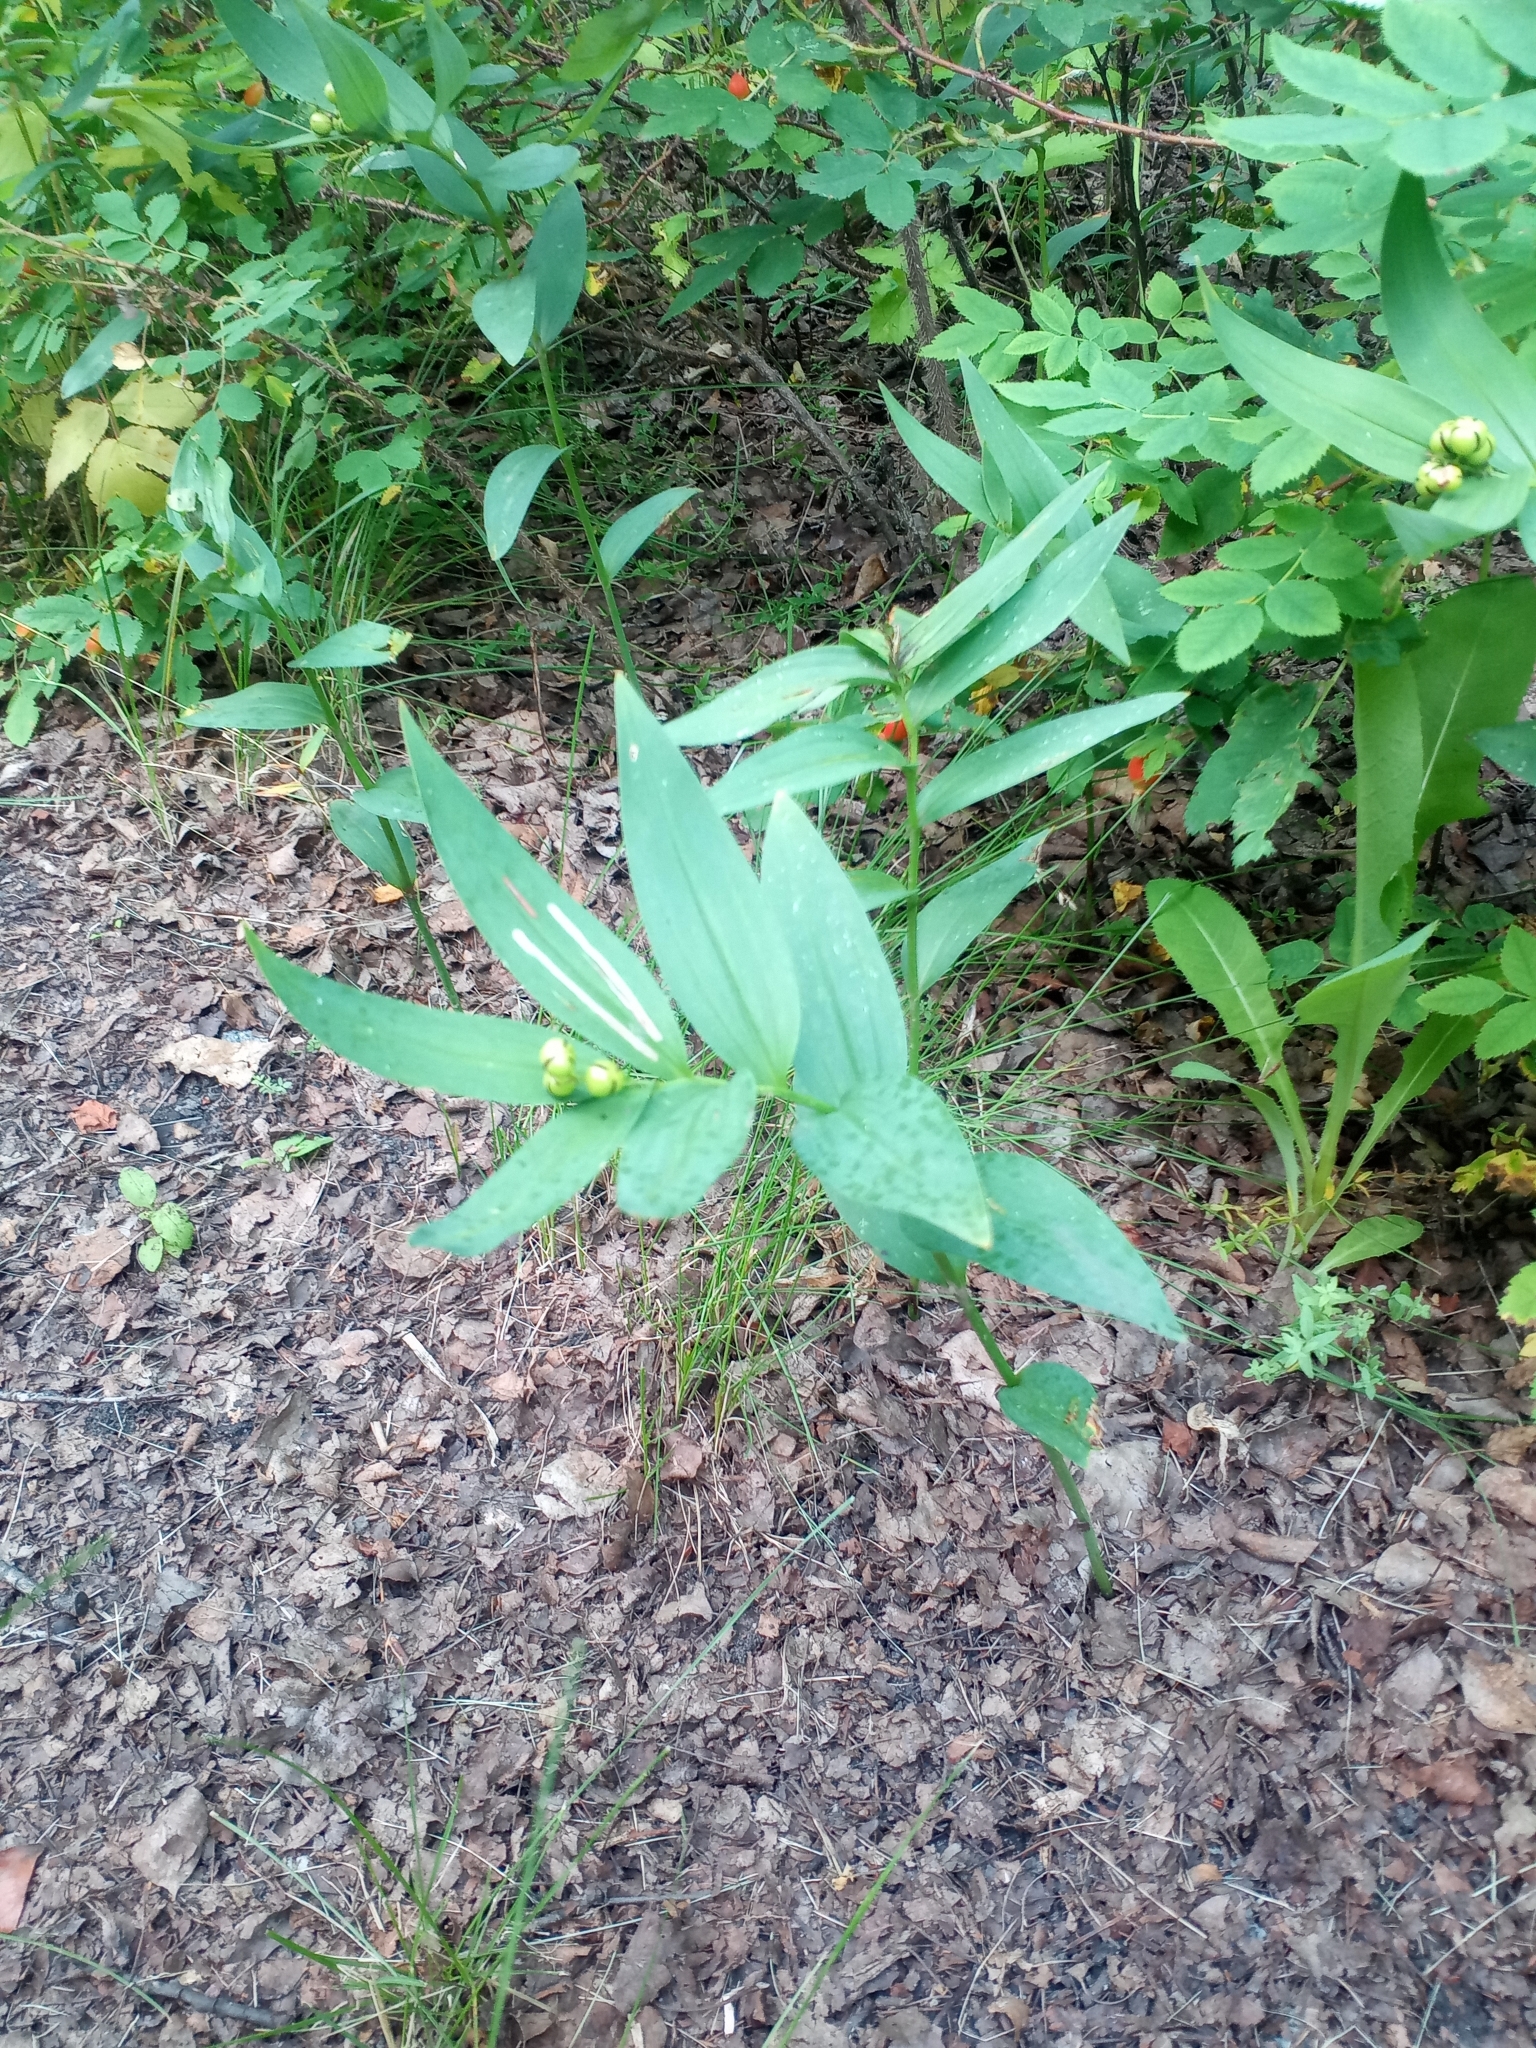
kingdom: Plantae
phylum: Tracheophyta
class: Liliopsida
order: Asparagales
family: Asparagaceae
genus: Maianthemum
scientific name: Maianthemum stellatum
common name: Little false solomon's seal
